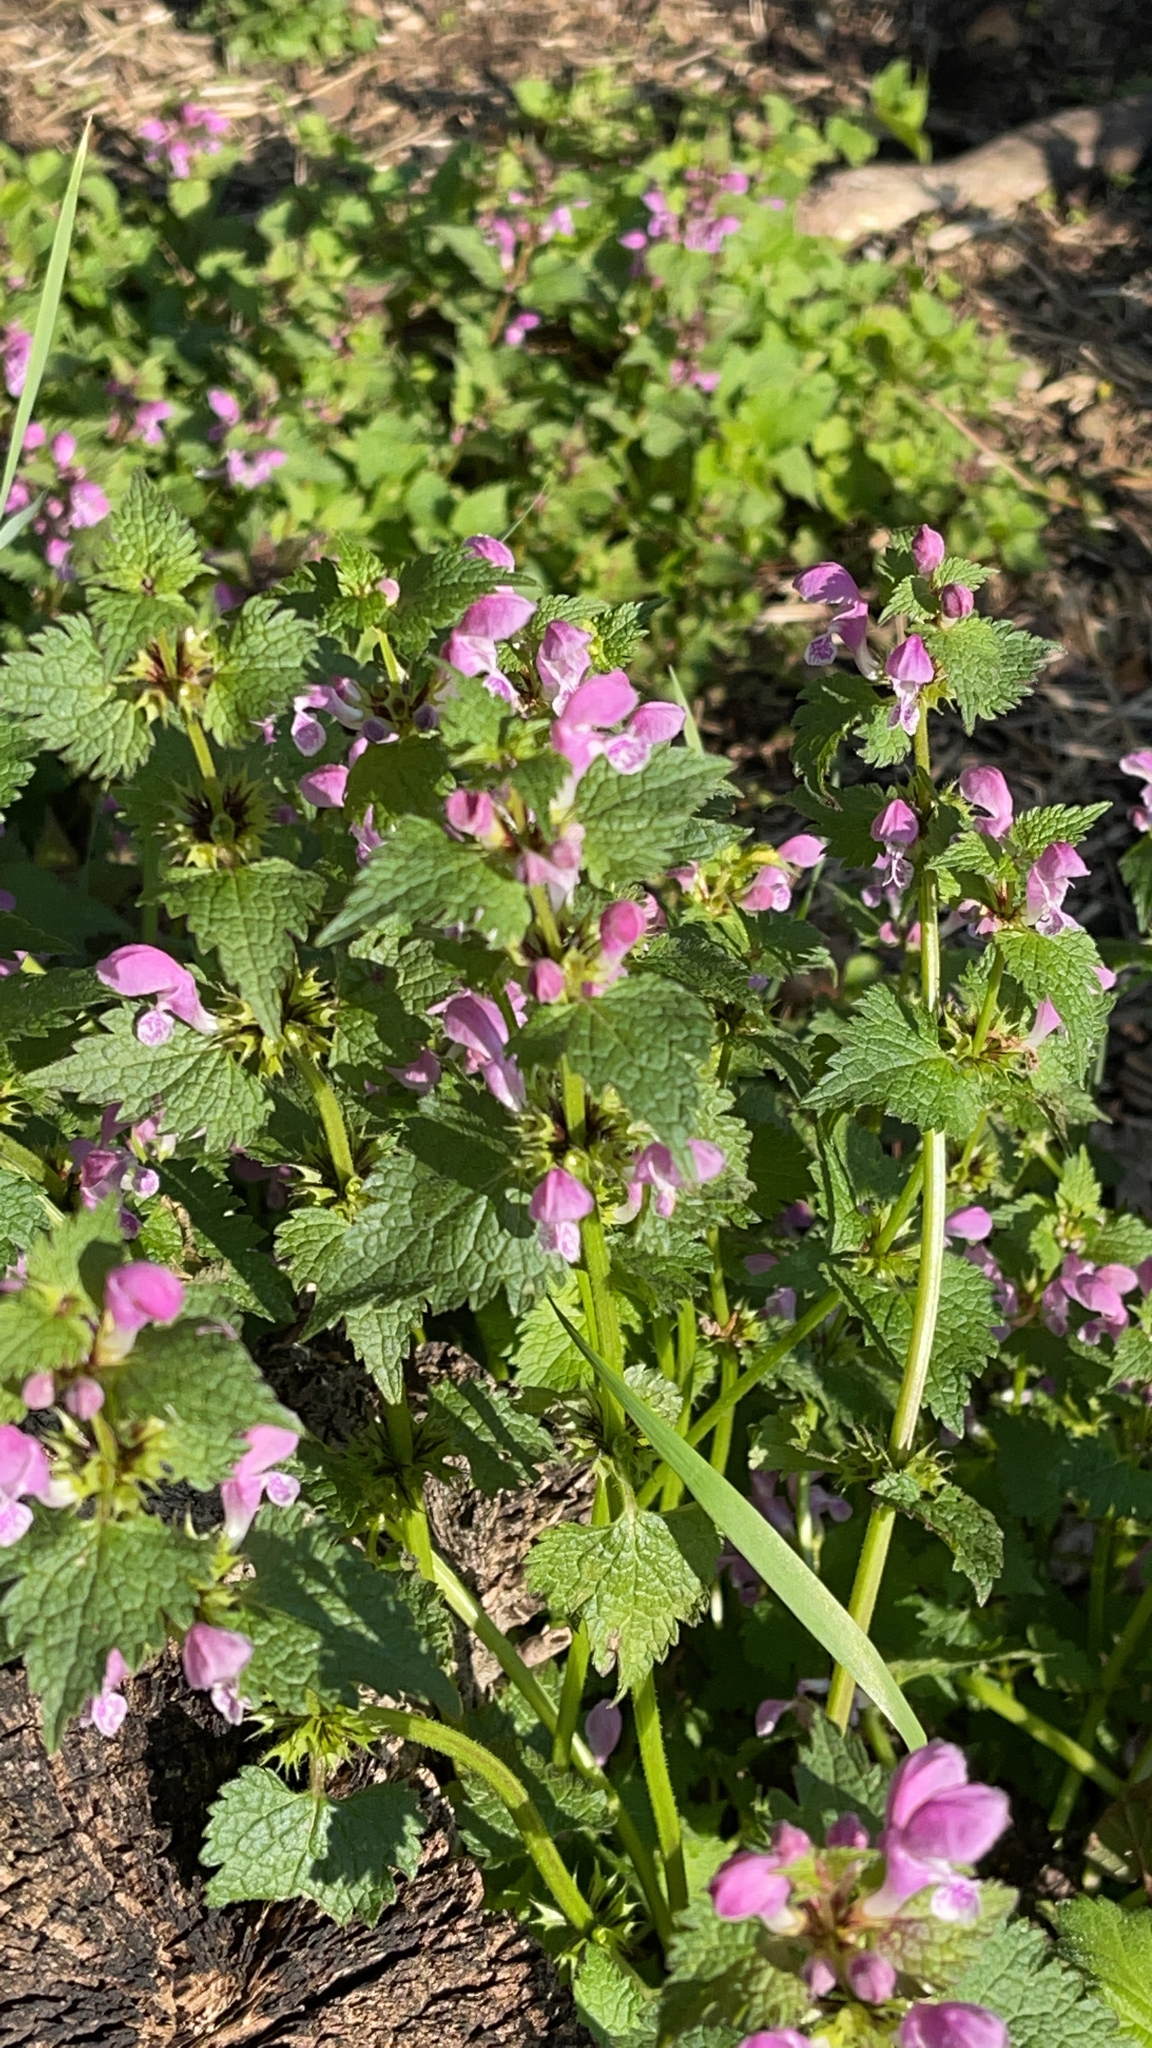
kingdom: Plantae
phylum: Tracheophyta
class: Magnoliopsida
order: Lamiales
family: Lamiaceae
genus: Lamium
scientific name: Lamium maculatum
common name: Spotted dead-nettle
